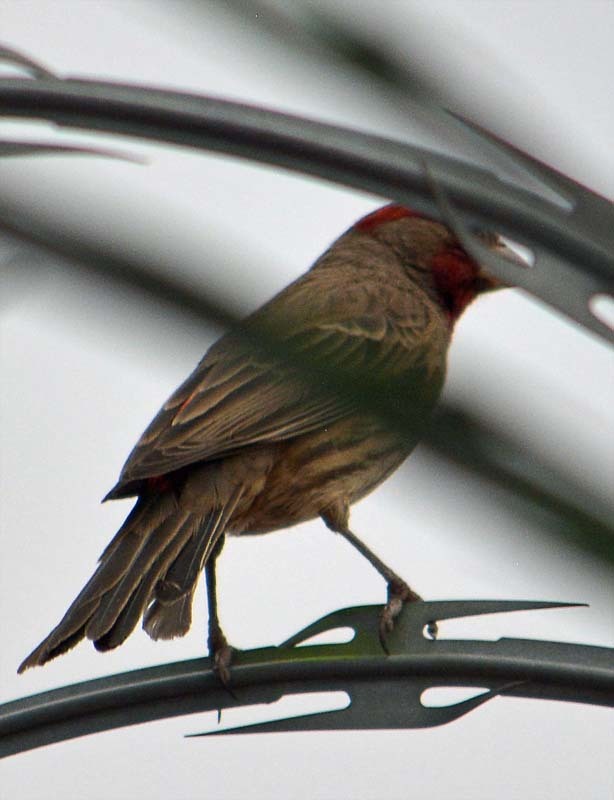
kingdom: Animalia
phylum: Chordata
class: Aves
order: Passeriformes
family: Fringillidae
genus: Haemorhous
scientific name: Haemorhous mexicanus
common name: House finch
